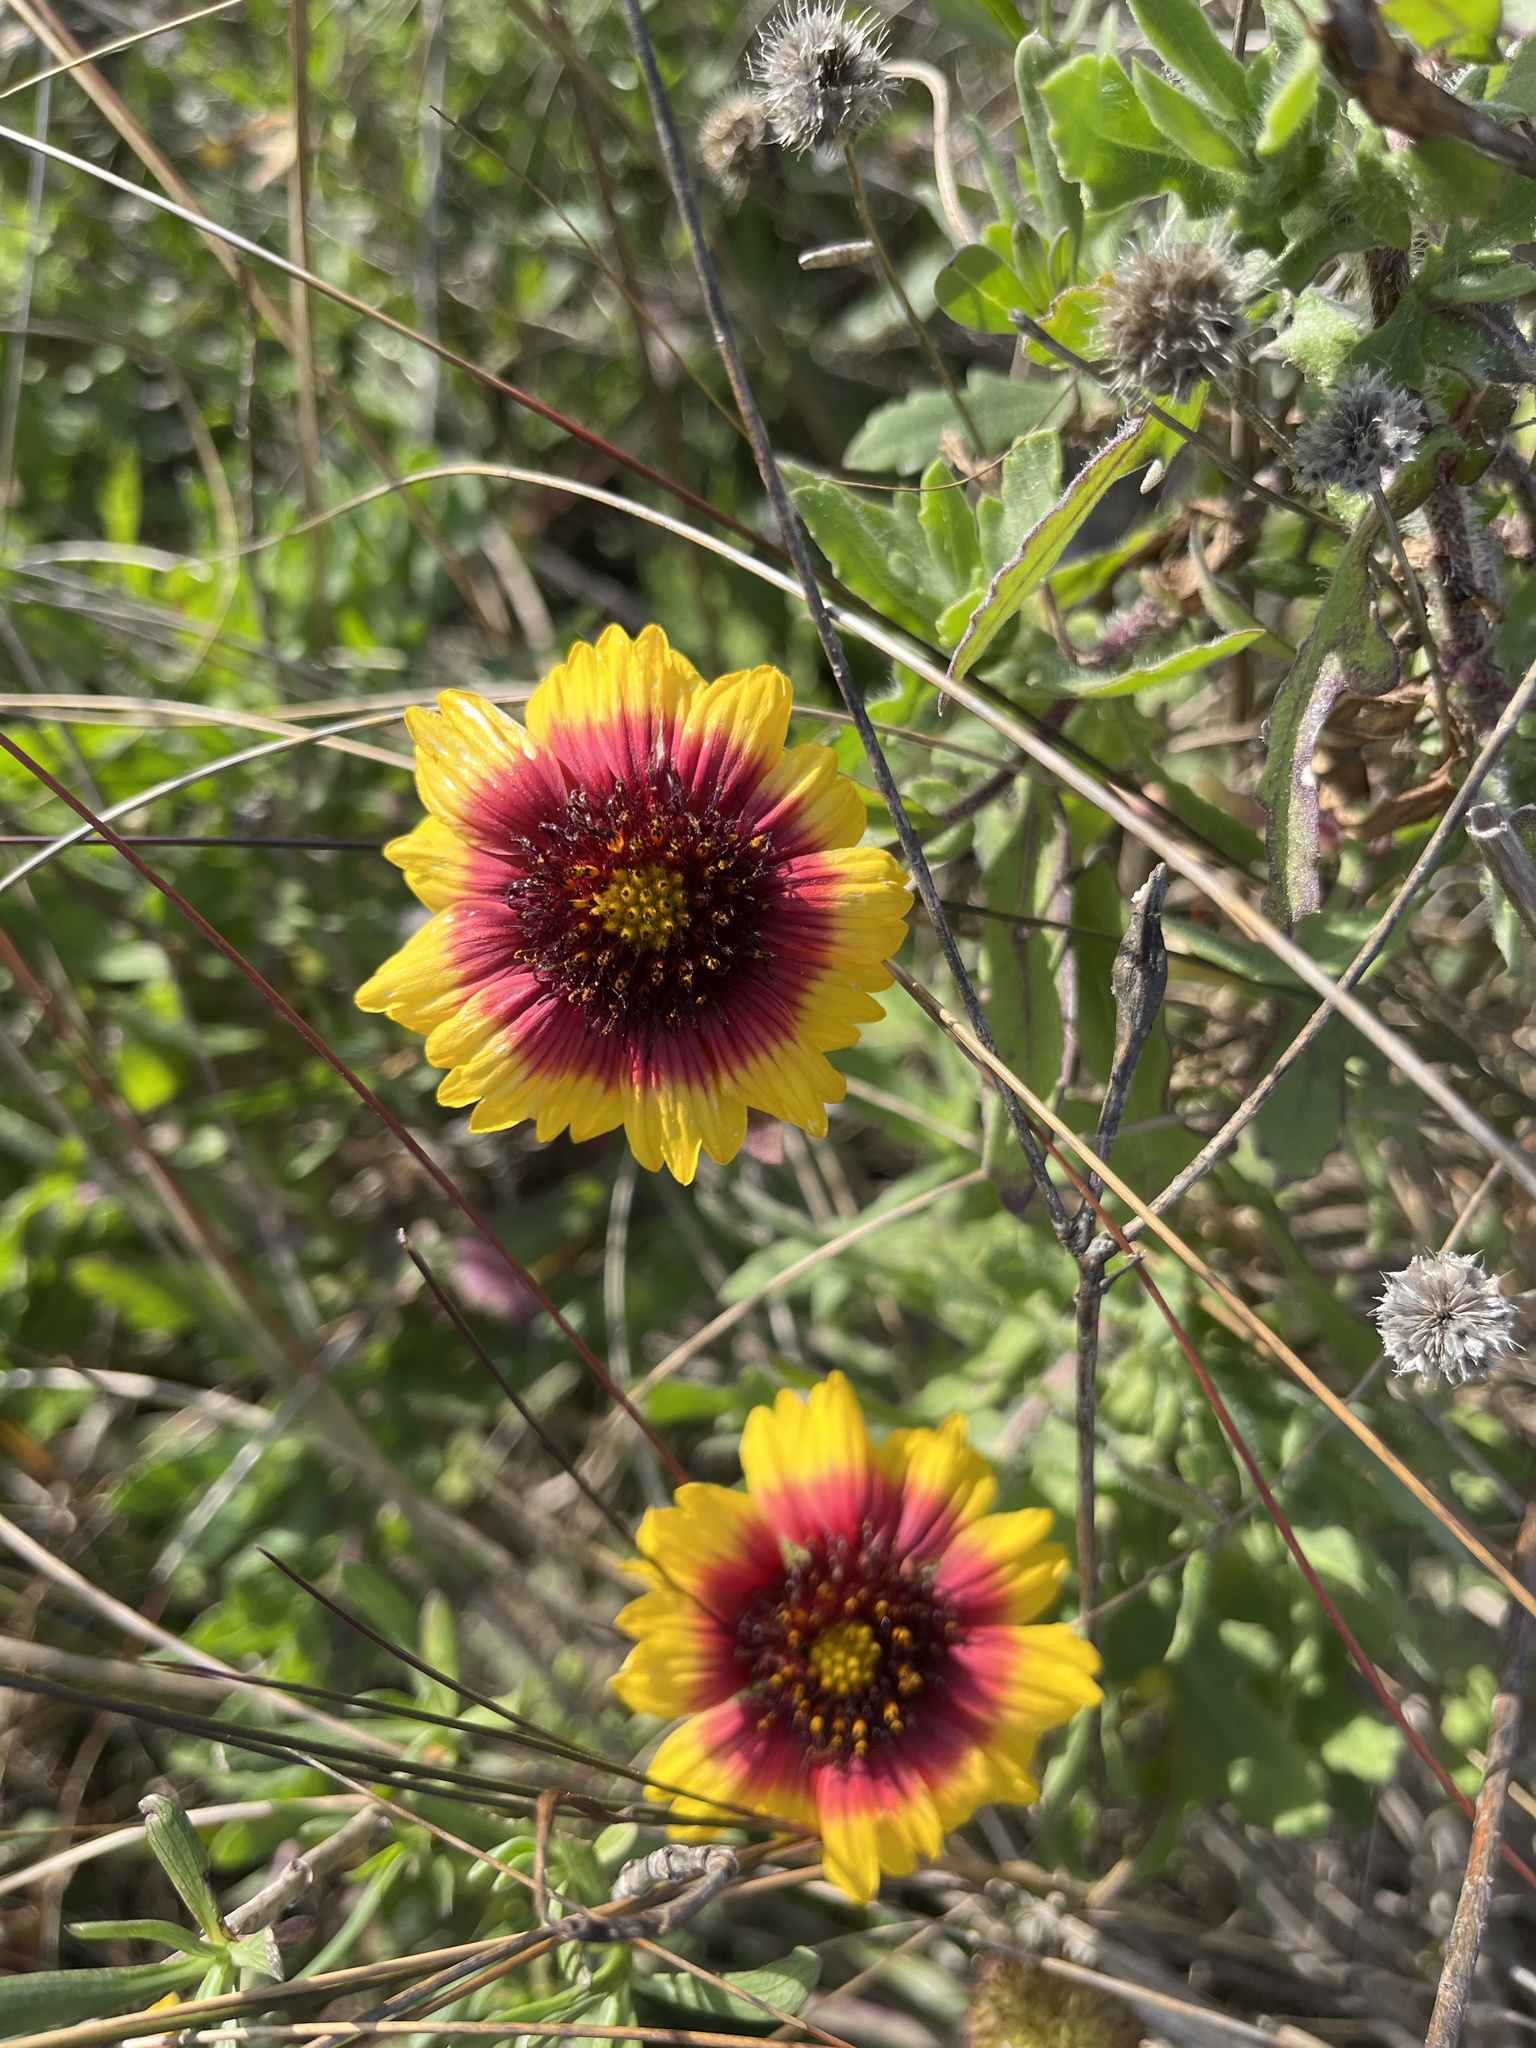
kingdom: Plantae
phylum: Tracheophyta
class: Magnoliopsida
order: Asterales
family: Asteraceae
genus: Gaillardia
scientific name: Gaillardia pulchella
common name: Firewheel
